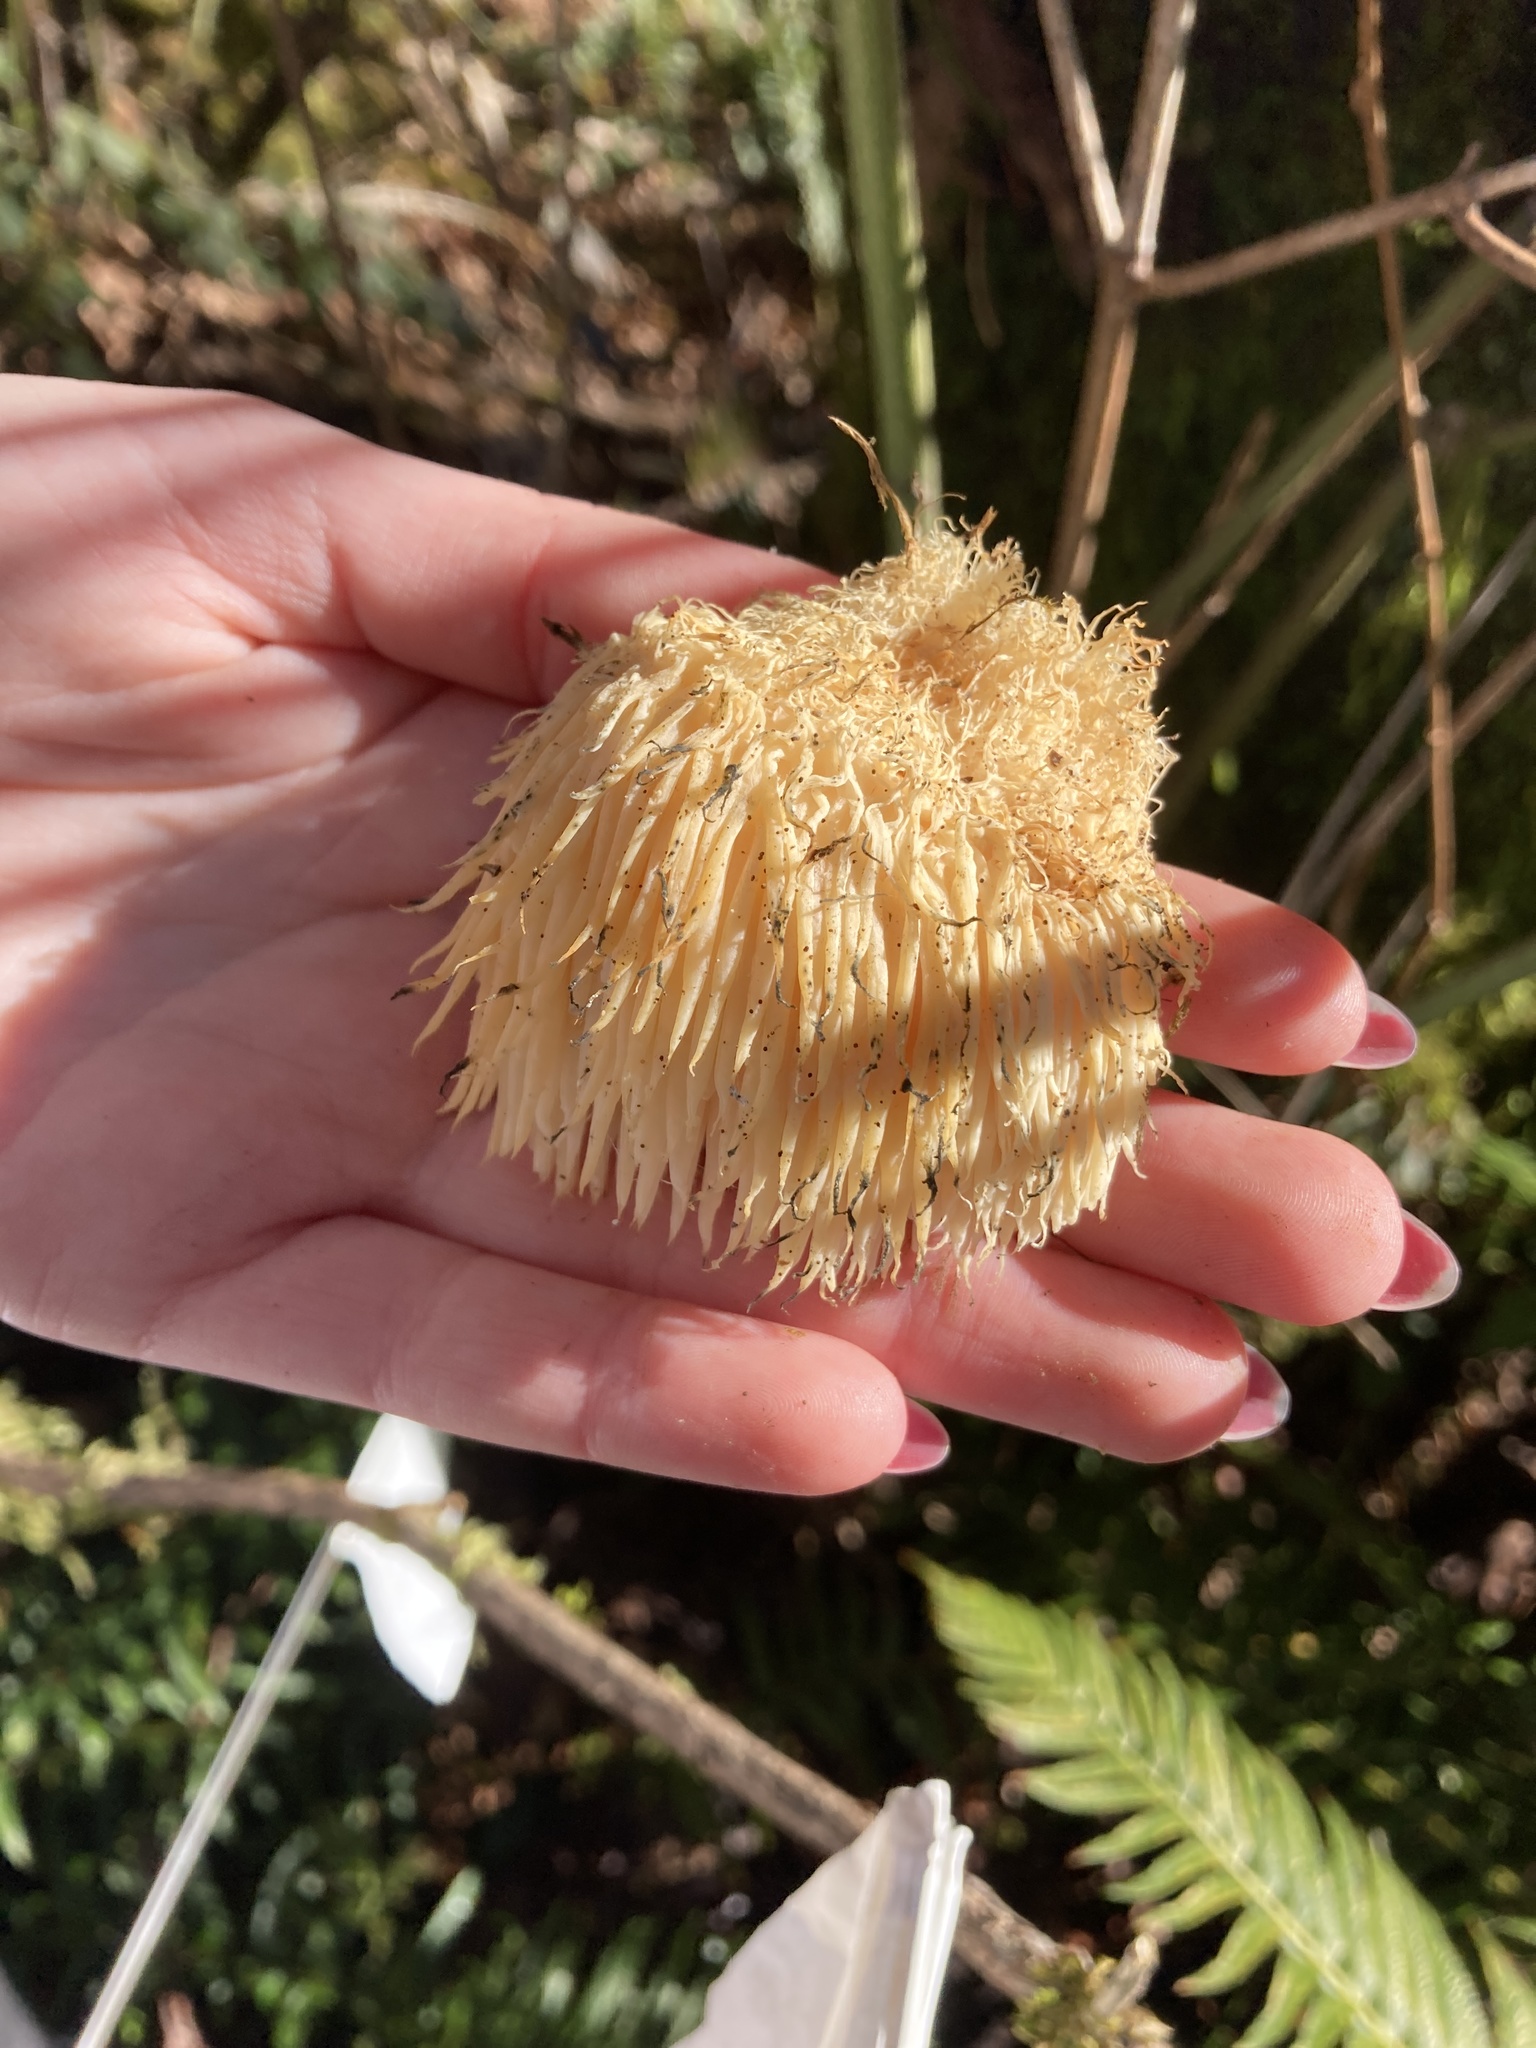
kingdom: Fungi
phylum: Basidiomycota
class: Agaricomycetes
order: Russulales
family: Hericiaceae
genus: Hericium
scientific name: Hericium erinaceus
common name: Bearded tooth
